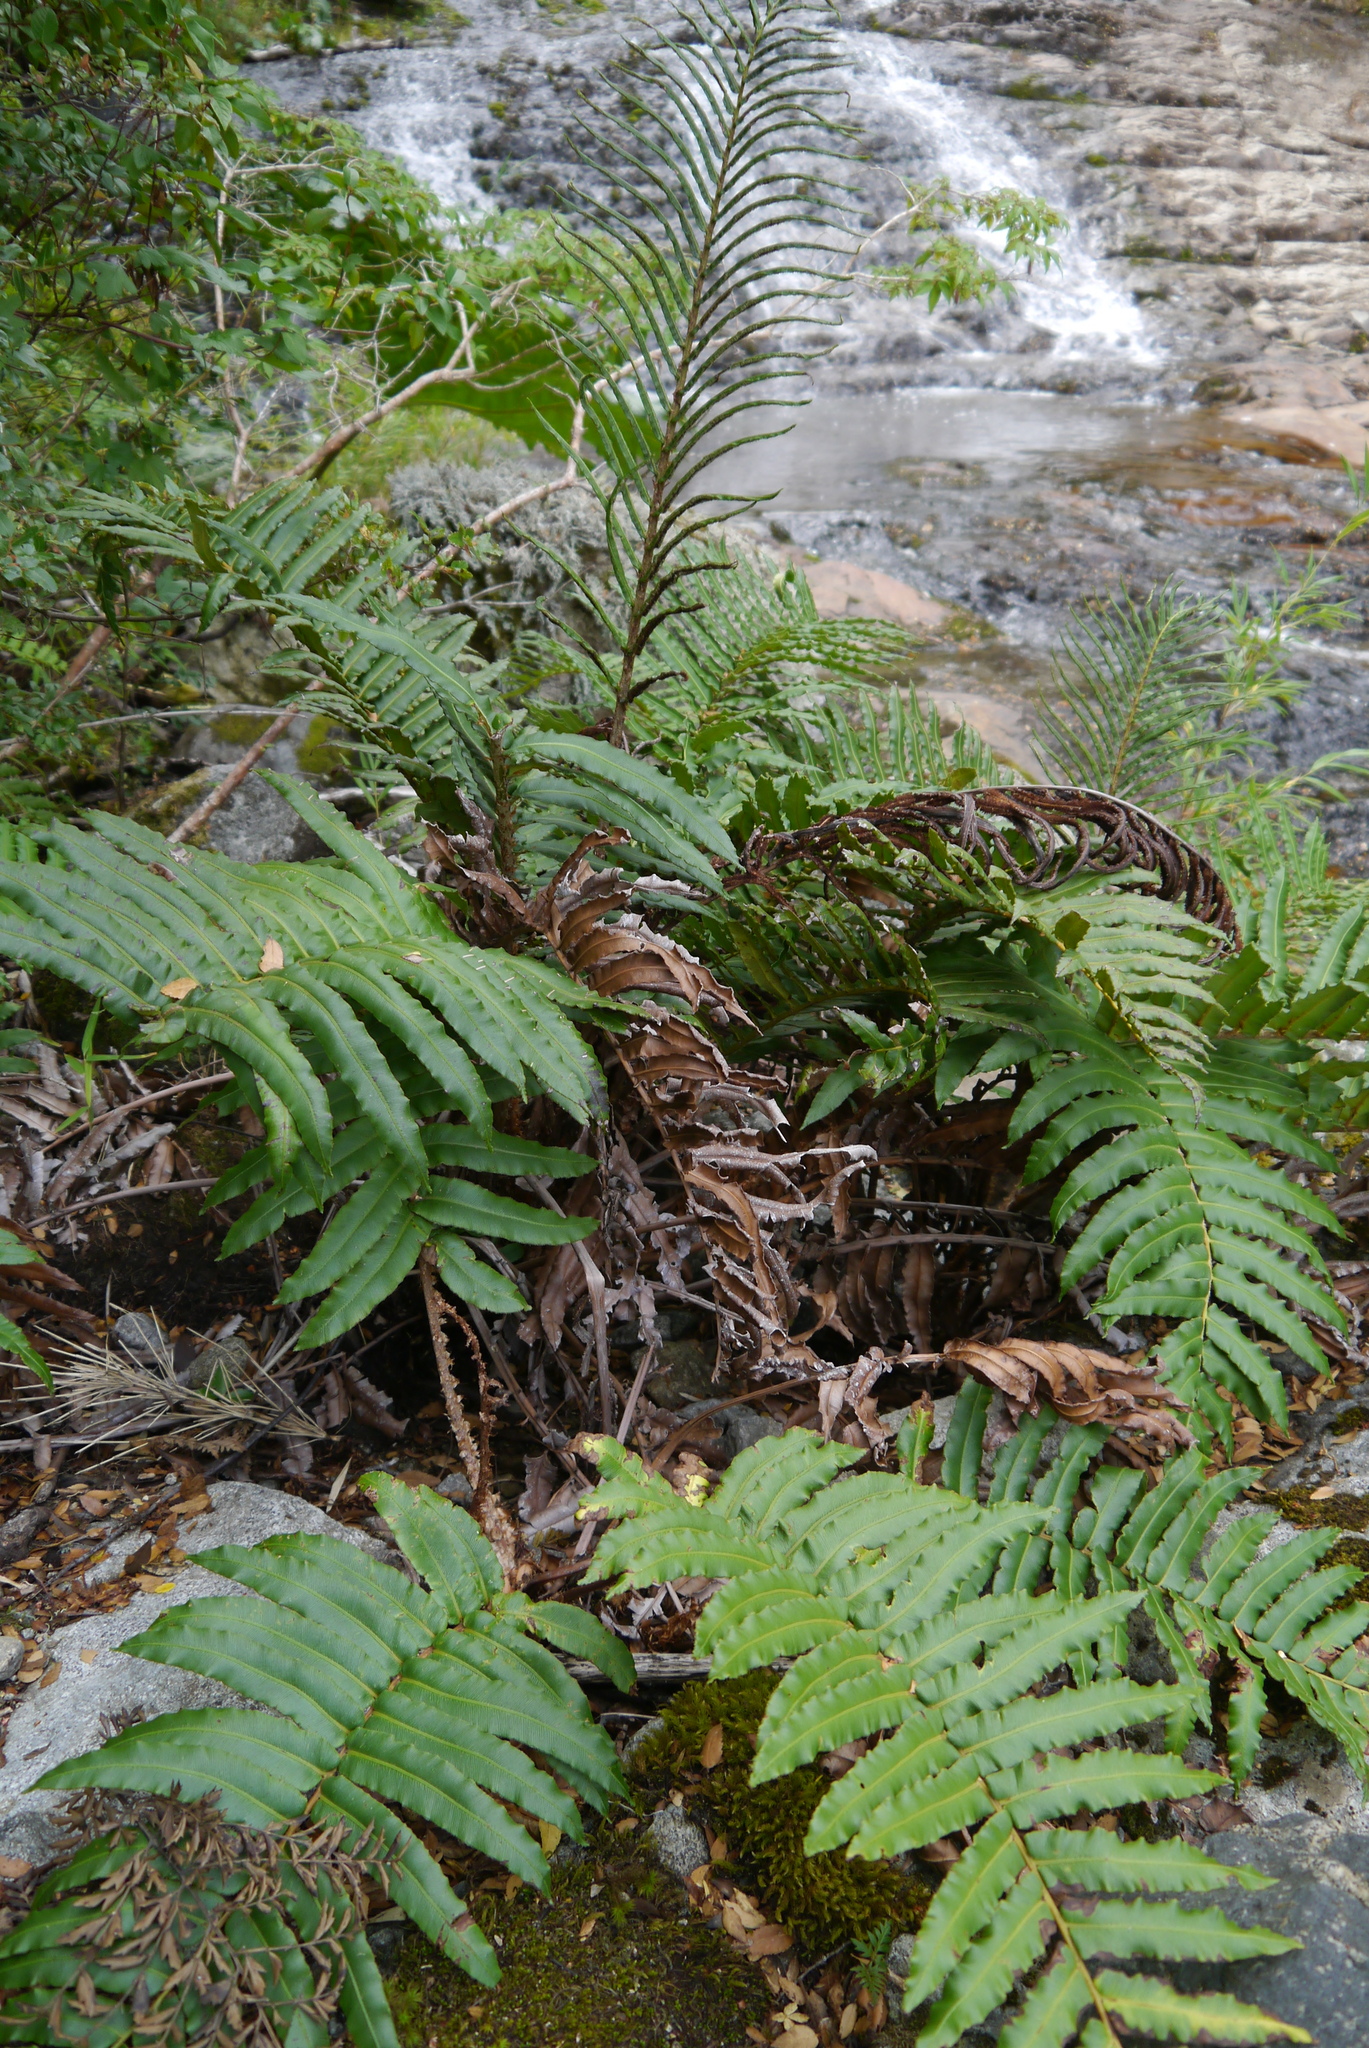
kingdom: Plantae
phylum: Tracheophyta
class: Polypodiopsida
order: Polypodiales
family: Blechnaceae
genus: Parablechnum
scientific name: Parablechnum chilense
